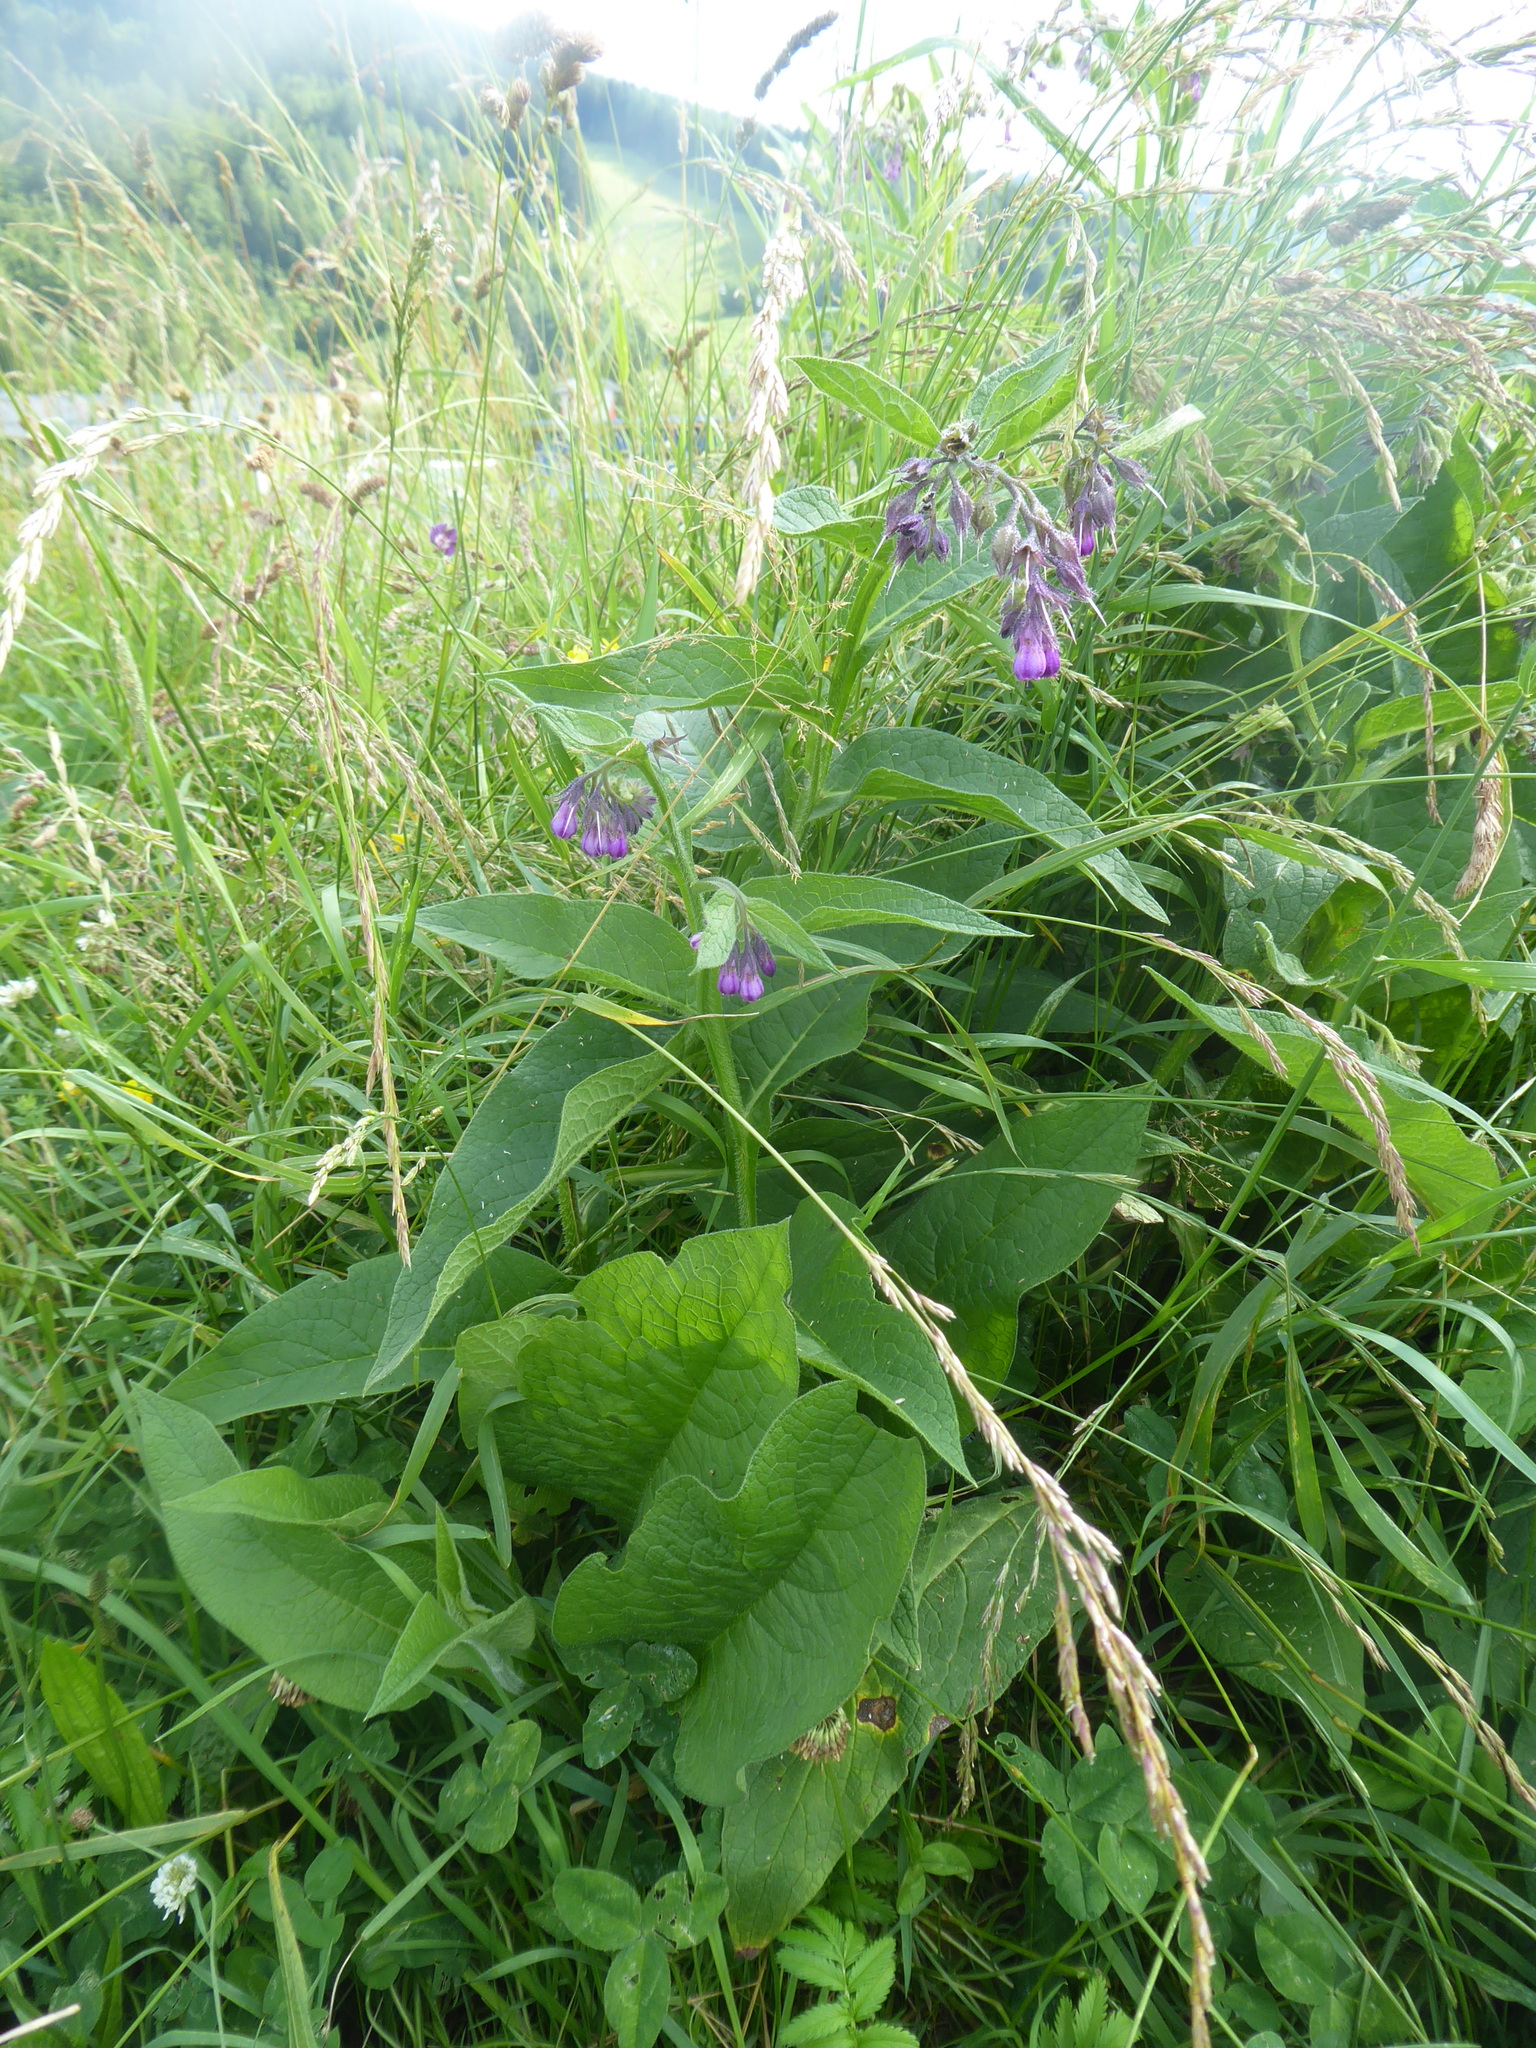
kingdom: Plantae
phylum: Tracheophyta
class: Magnoliopsida
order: Boraginales
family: Boraginaceae
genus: Symphytum
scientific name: Symphytum officinale
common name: Common comfrey
